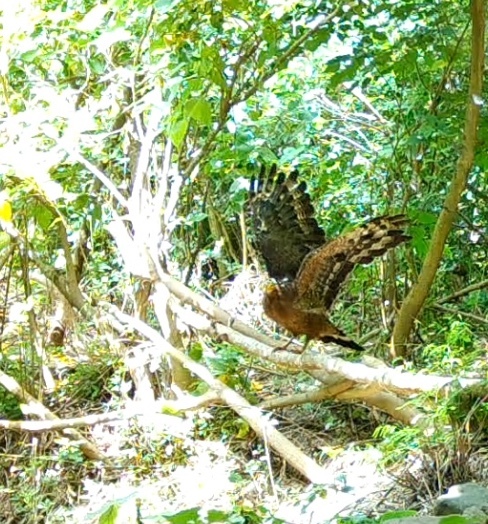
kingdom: Animalia
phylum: Chordata
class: Aves
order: Accipitriformes
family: Accipitridae
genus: Spilornis
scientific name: Spilornis cheela
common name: Crested serpent eagle
